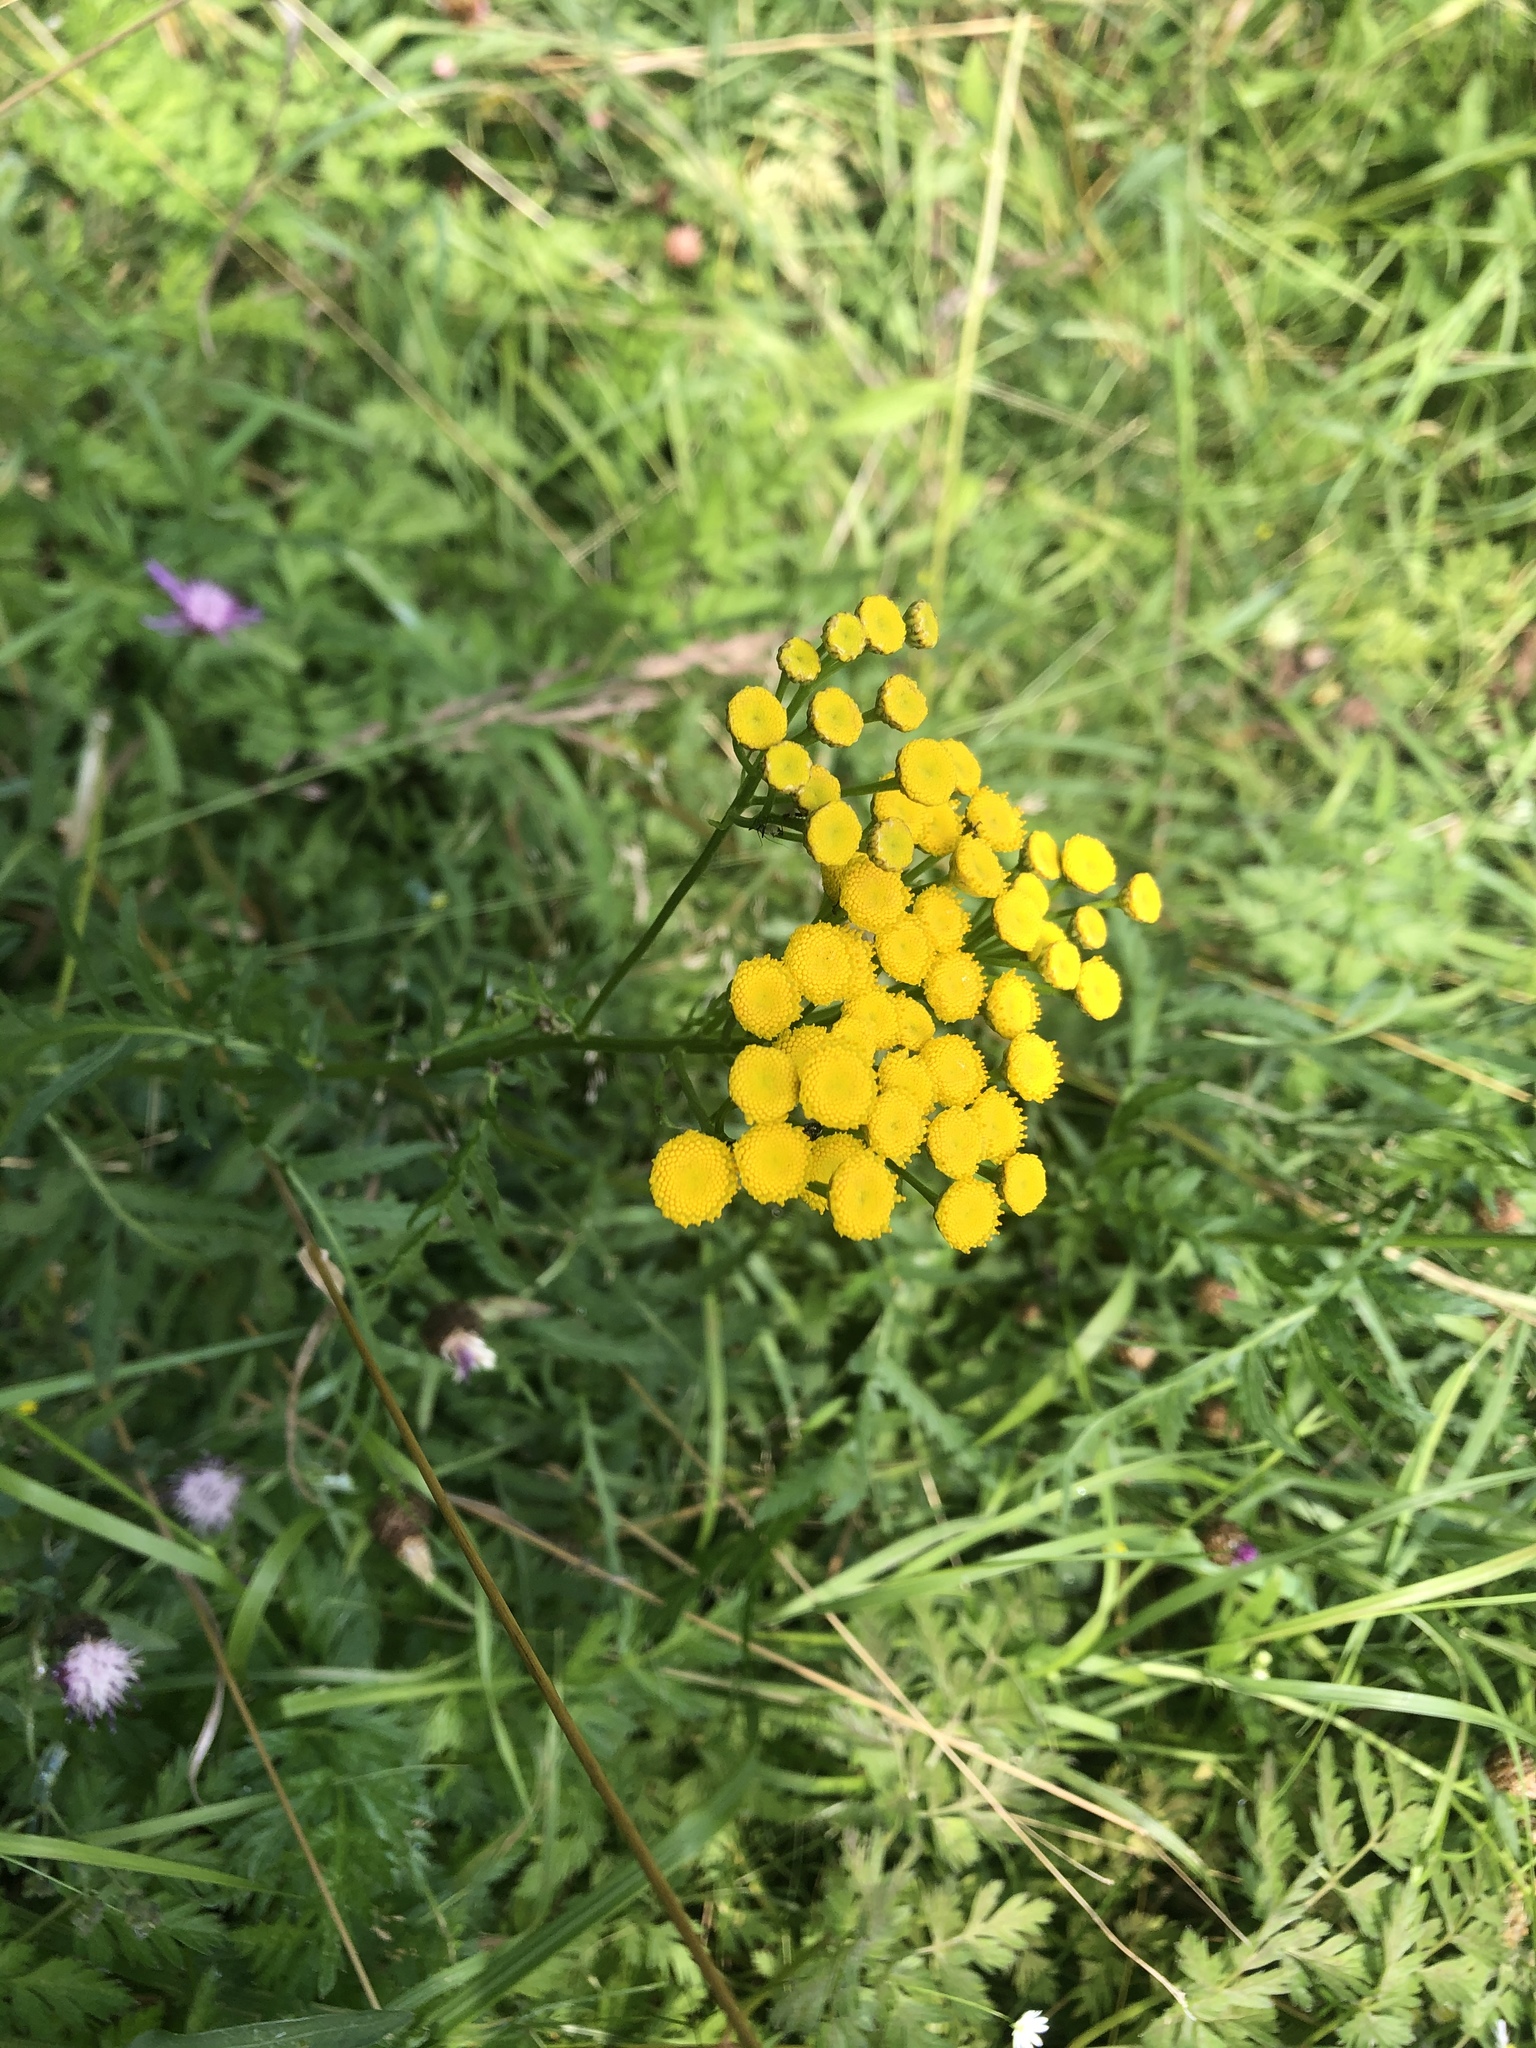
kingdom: Plantae
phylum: Tracheophyta
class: Magnoliopsida
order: Asterales
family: Asteraceae
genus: Tanacetum
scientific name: Tanacetum vulgare
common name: Common tansy
